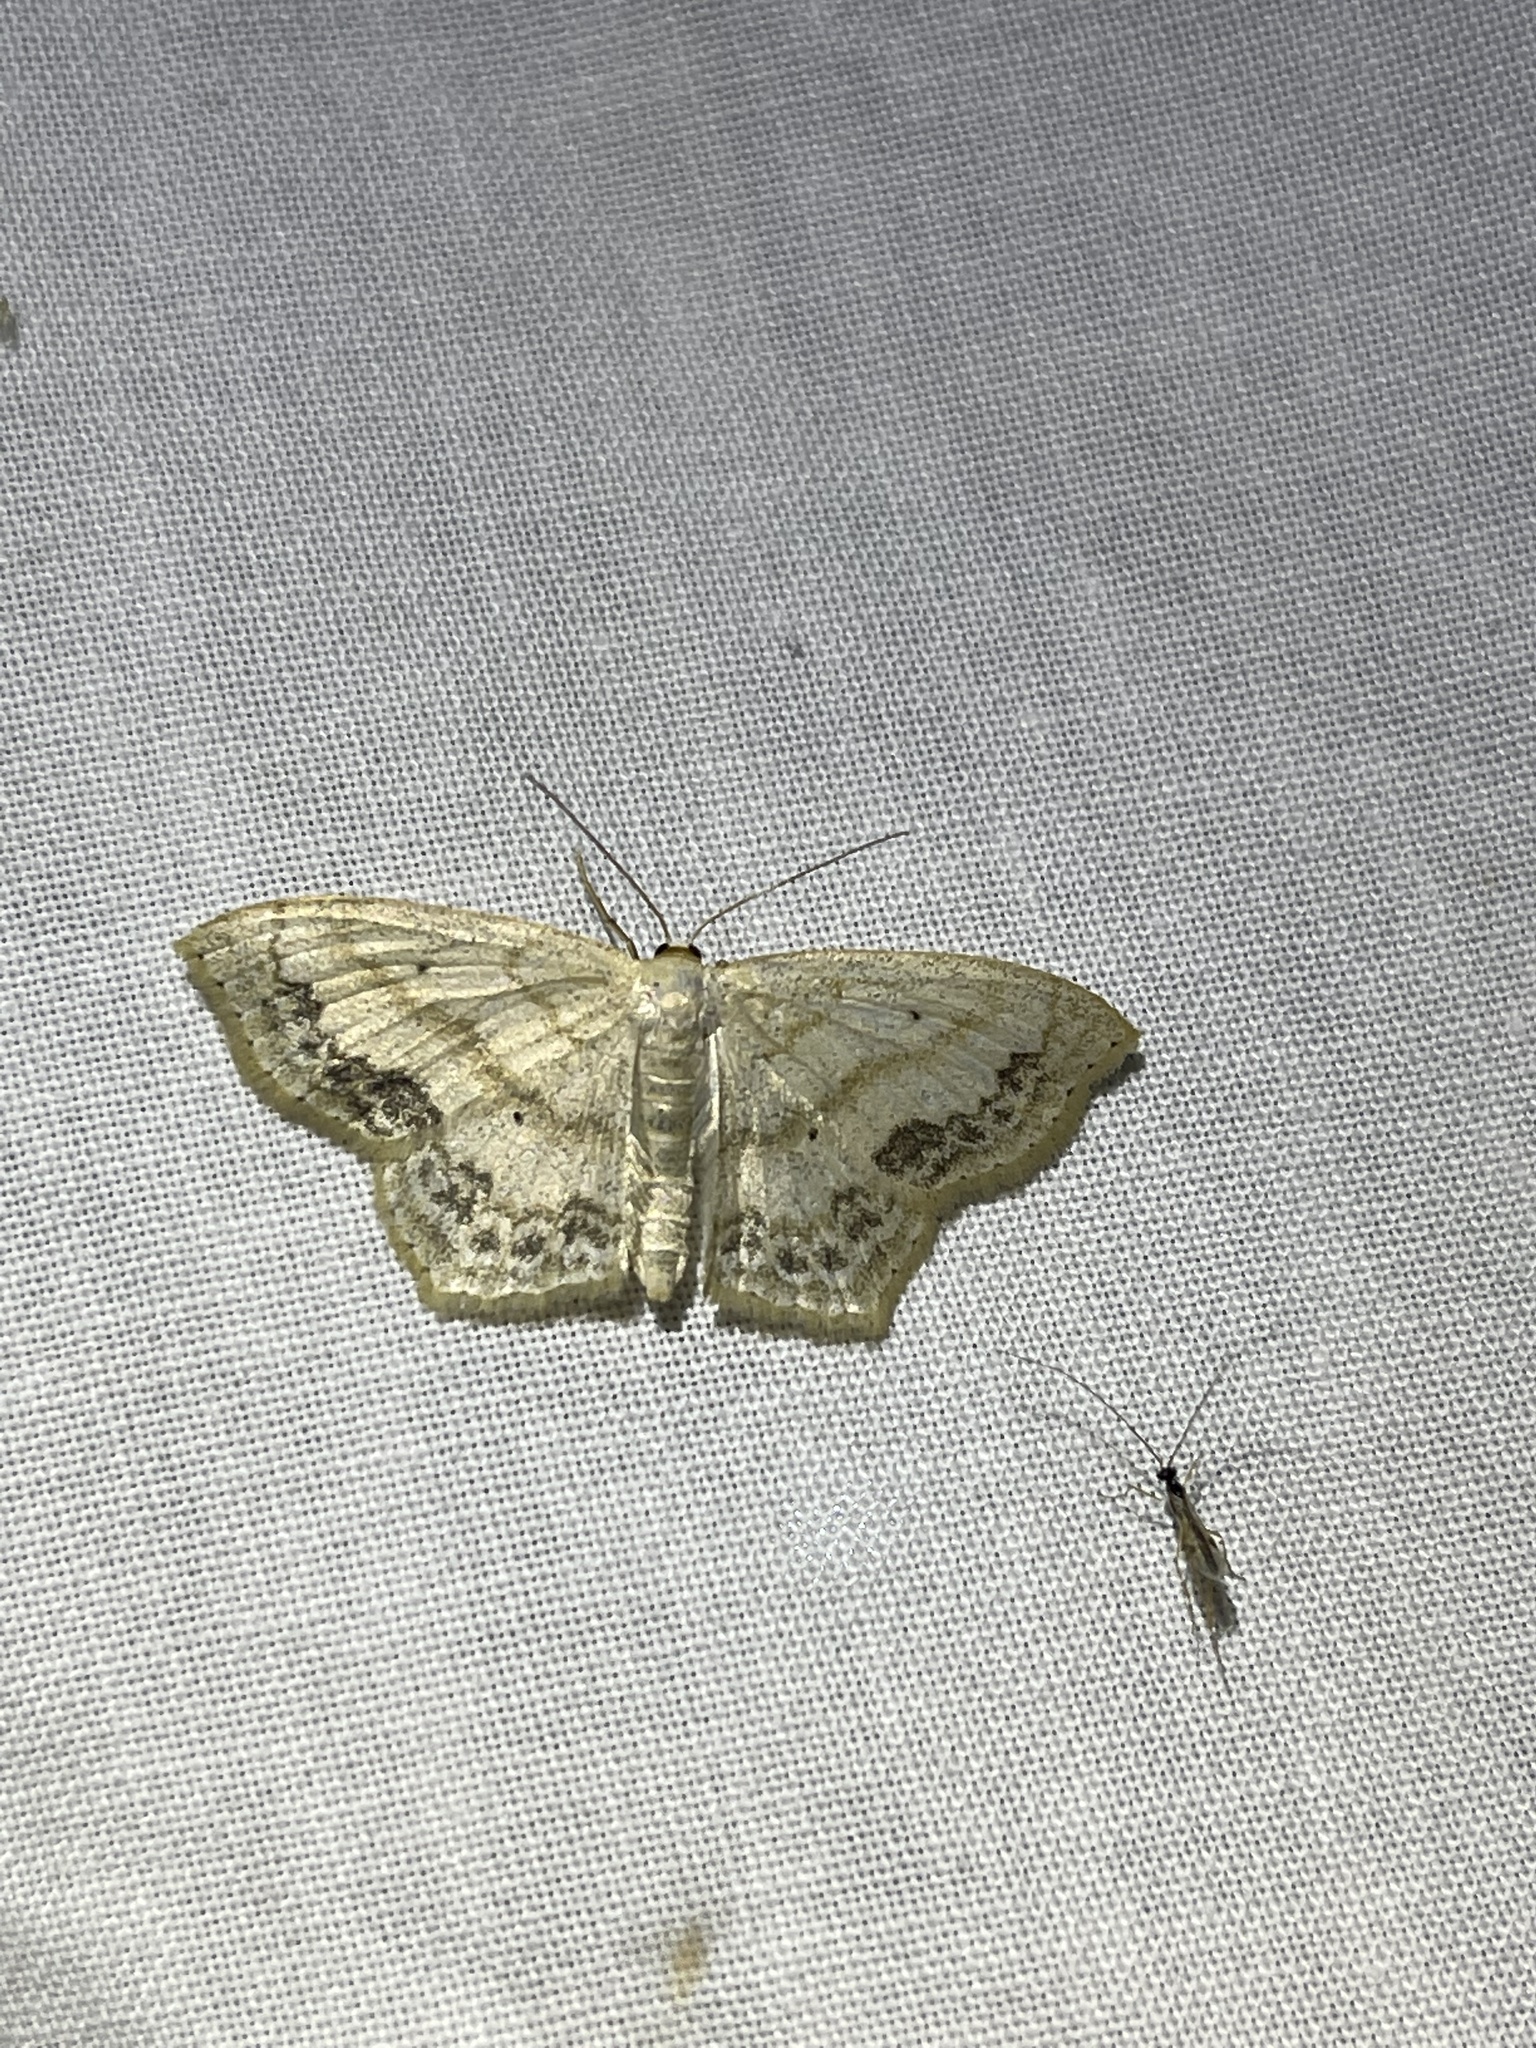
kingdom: Animalia
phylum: Arthropoda
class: Insecta
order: Lepidoptera
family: Geometridae
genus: Scopula
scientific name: Scopula limboundata
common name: Large lace border
